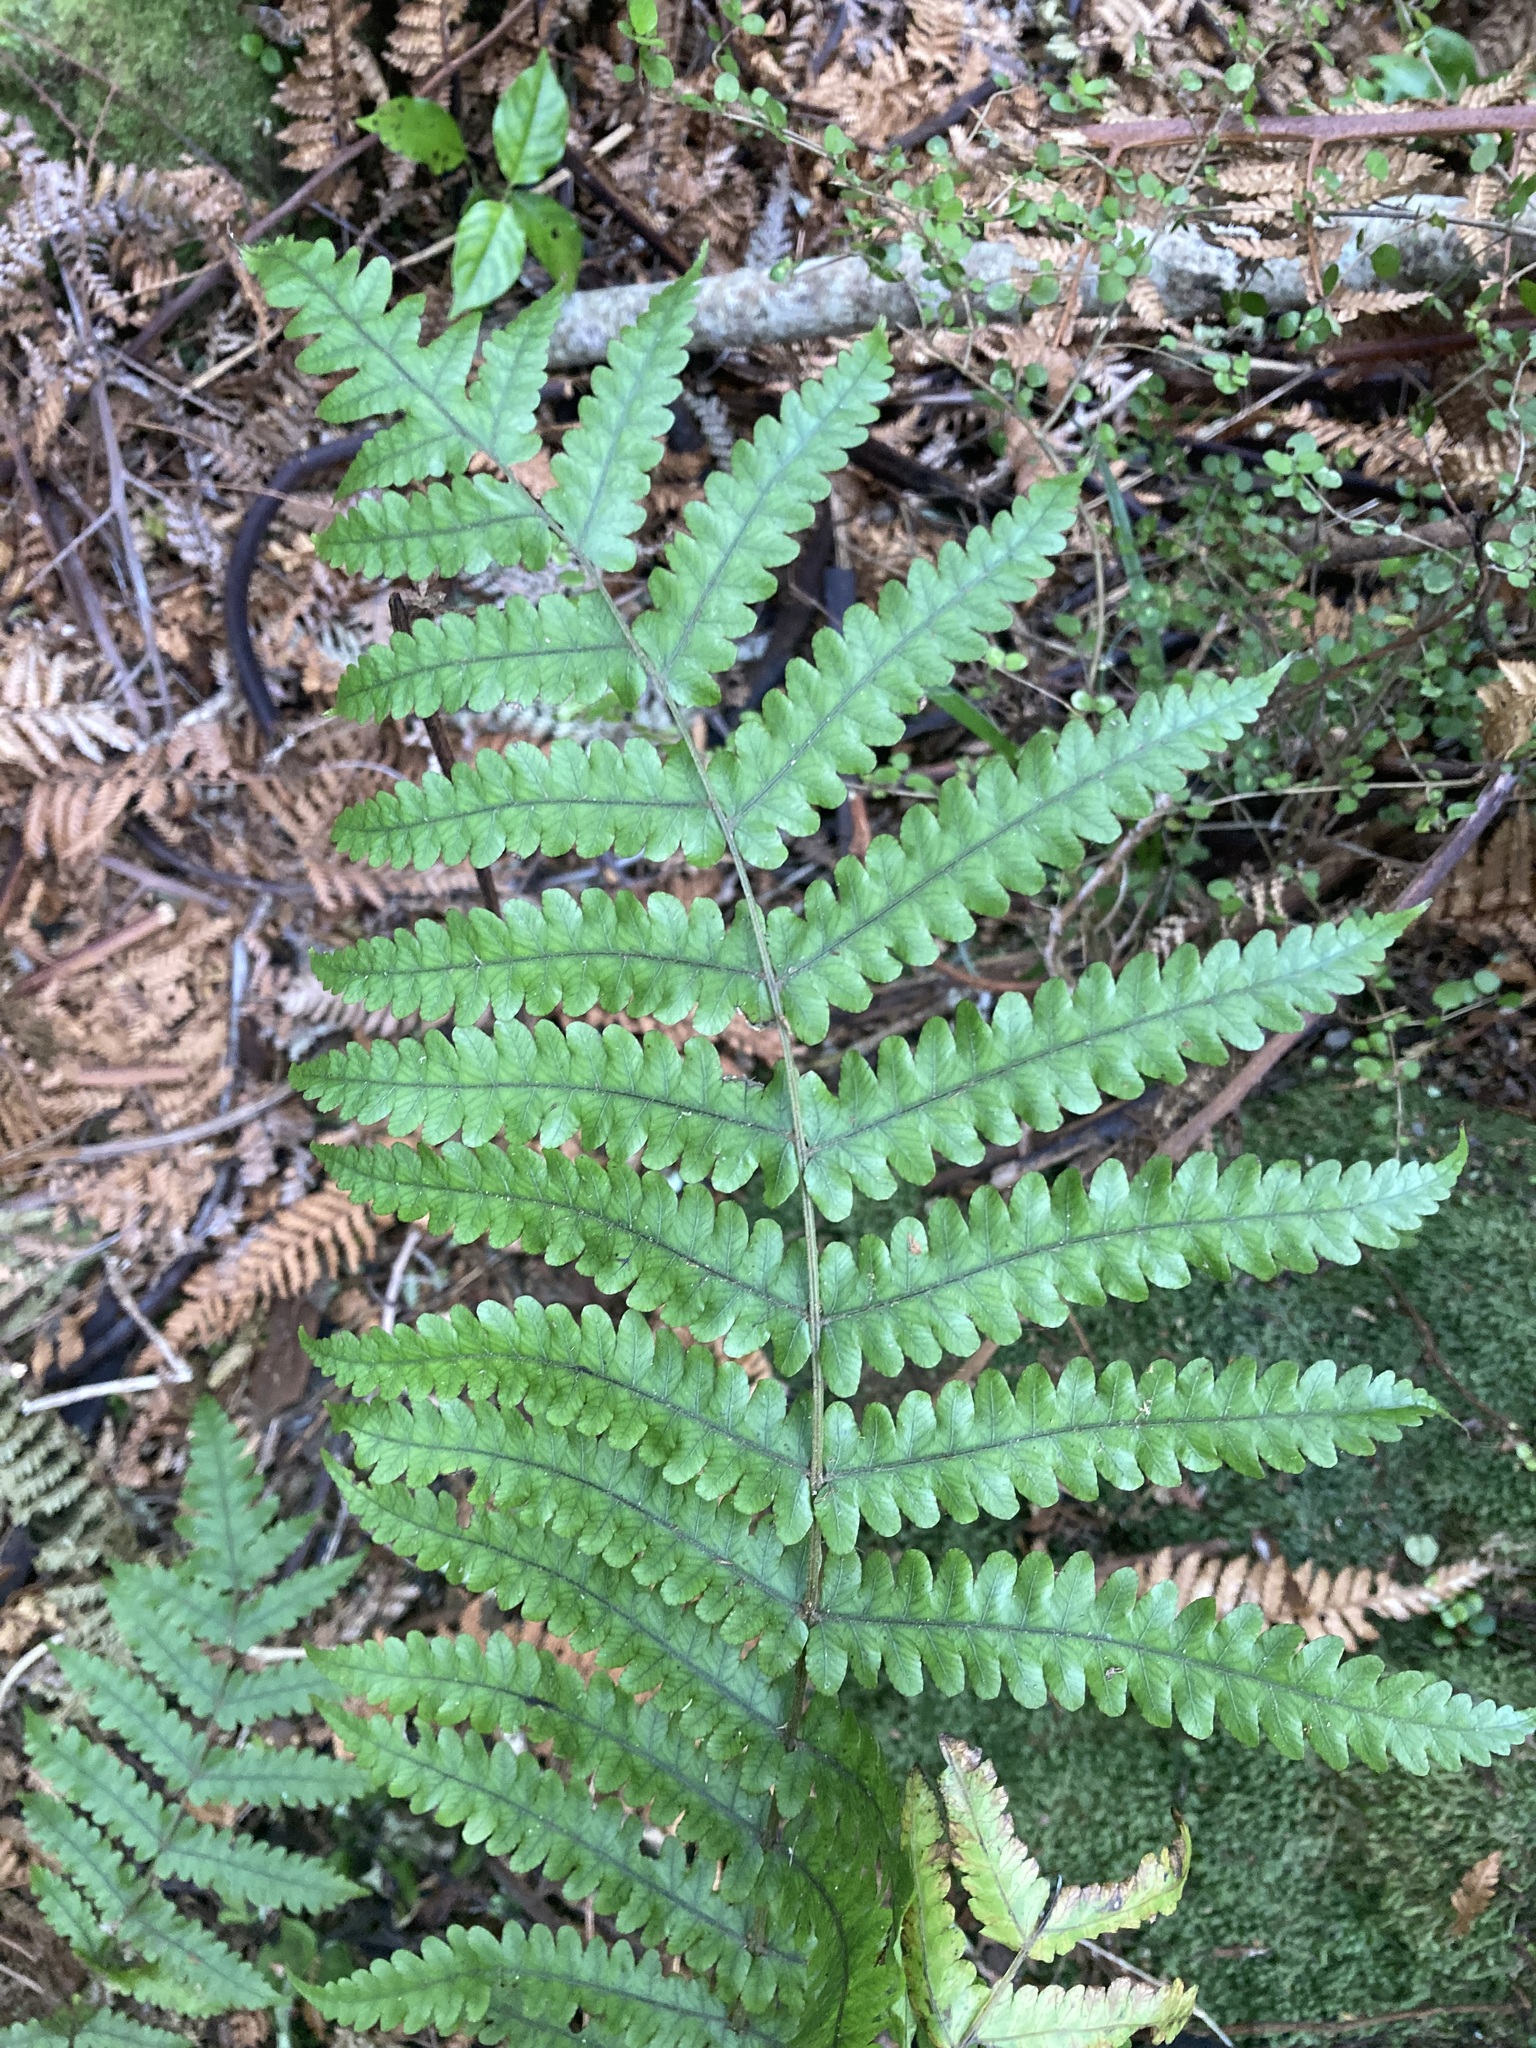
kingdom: Plantae
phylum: Tracheophyta
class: Polypodiopsida
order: Polypodiales
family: Thelypteridaceae
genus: Pakau
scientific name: Pakau pennigera
